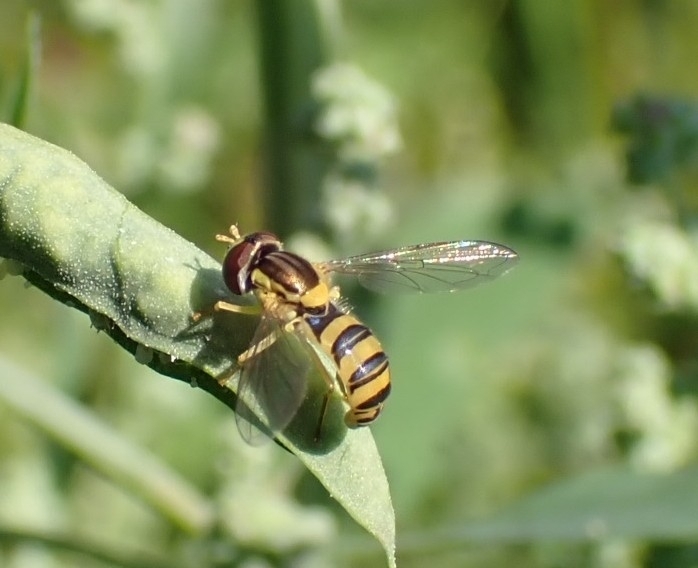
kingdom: Animalia
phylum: Arthropoda
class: Insecta
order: Diptera
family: Syrphidae
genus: Sphaerophoria
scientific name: Sphaerophoria
